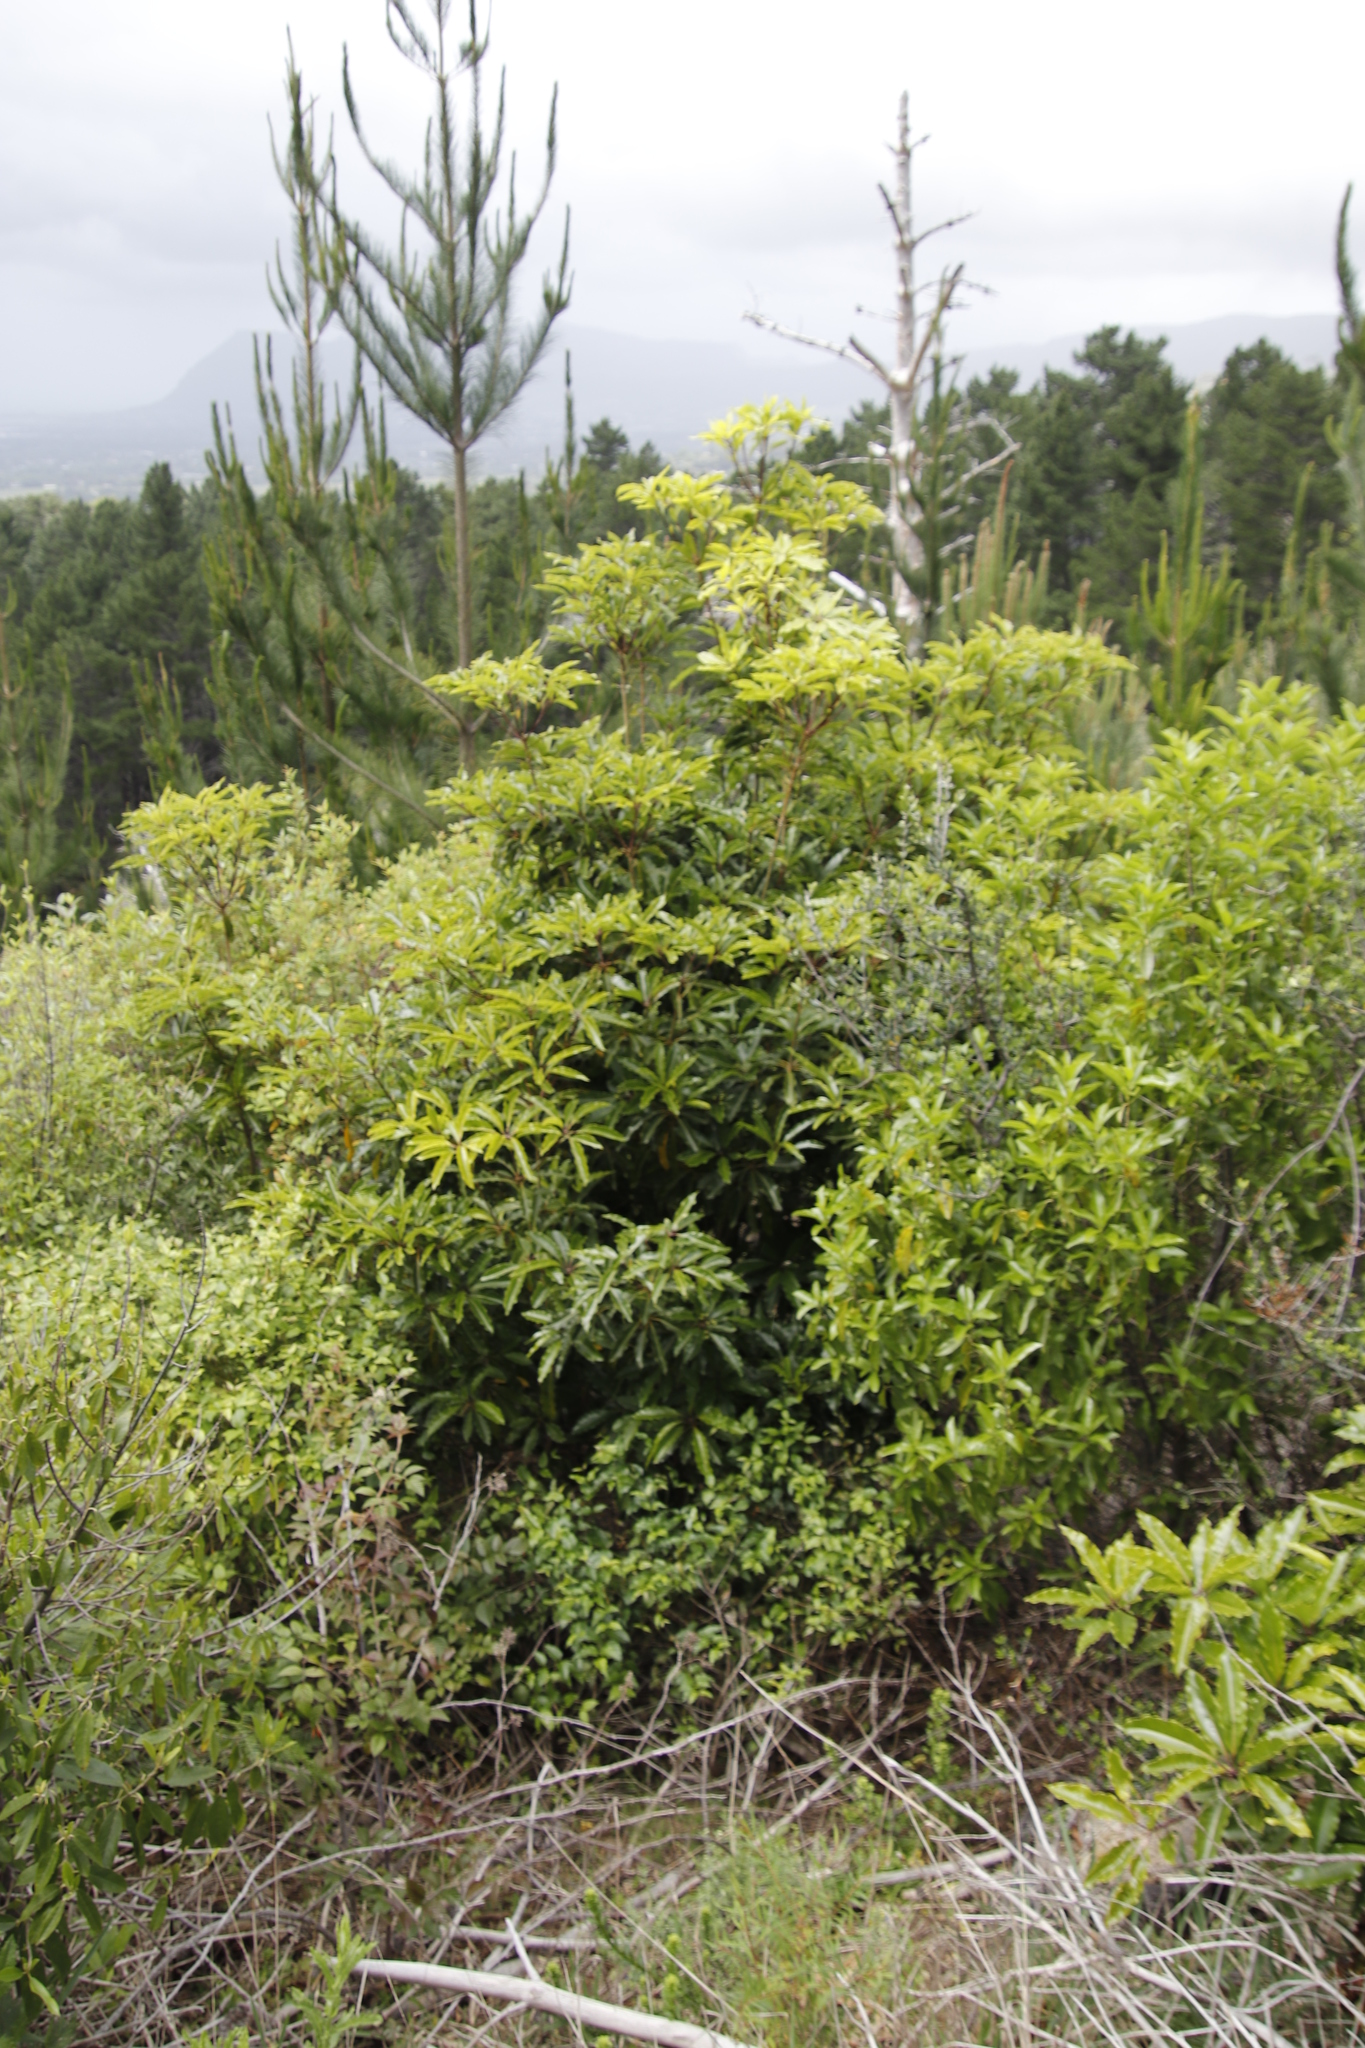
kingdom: Plantae
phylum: Tracheophyta
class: Magnoliopsida
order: Apiales
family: Pittosporaceae
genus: Pittosporum
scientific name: Pittosporum undulatum
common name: Australian cheesewood
